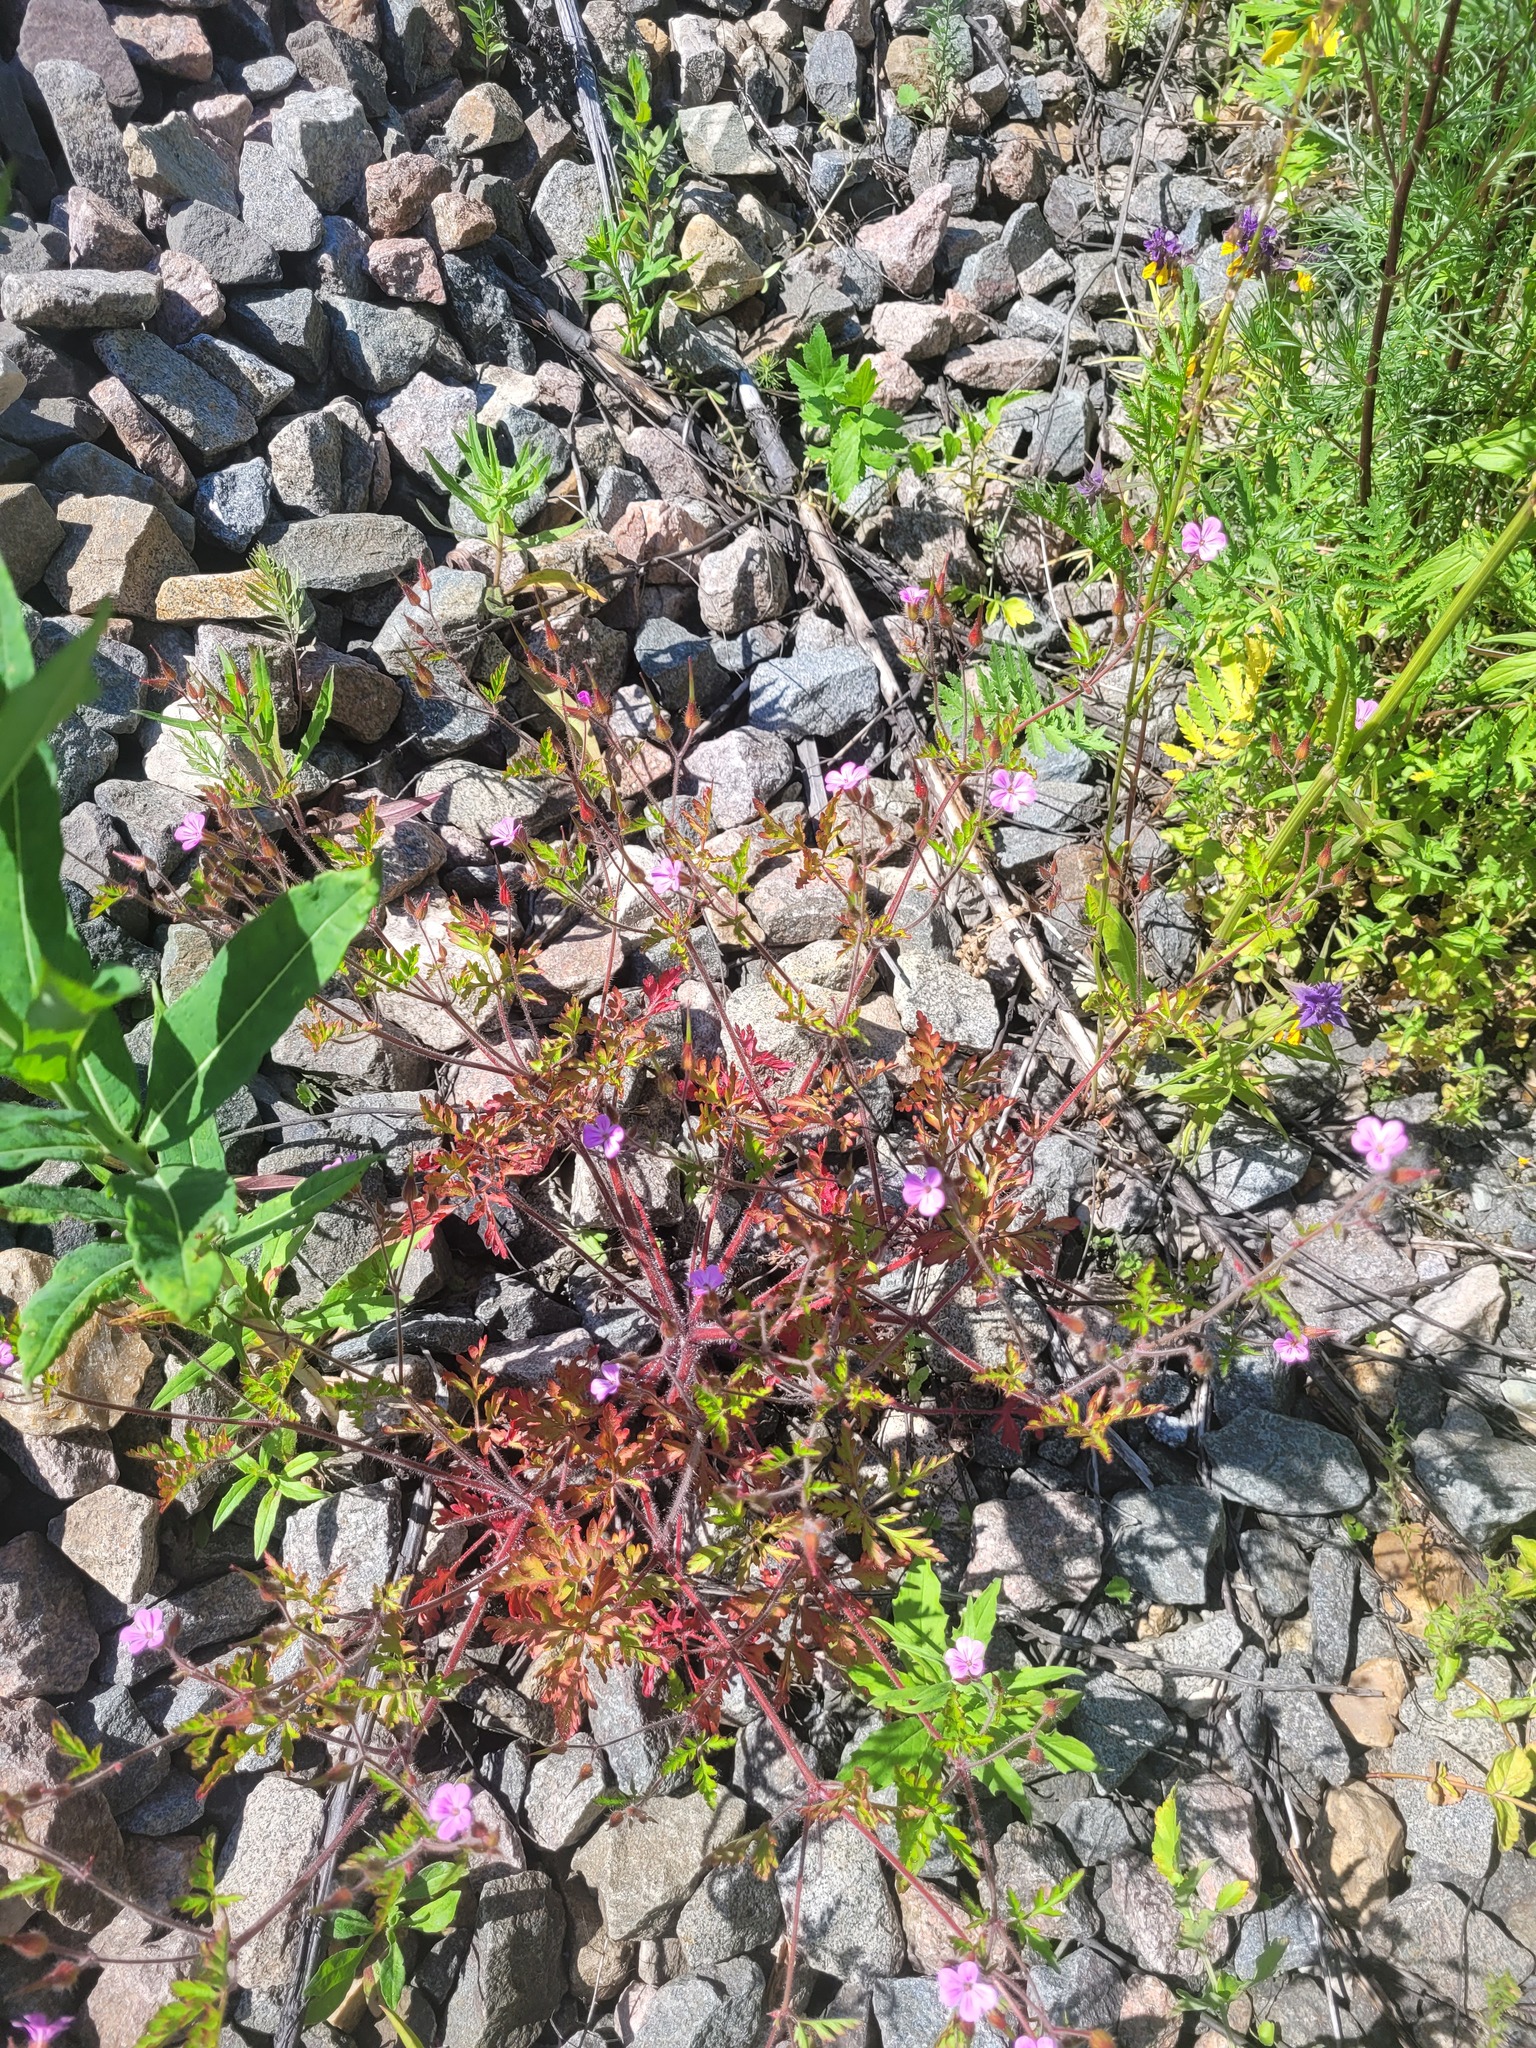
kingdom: Plantae
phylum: Tracheophyta
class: Magnoliopsida
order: Geraniales
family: Geraniaceae
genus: Geranium
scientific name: Geranium robertianum
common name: Herb-robert
